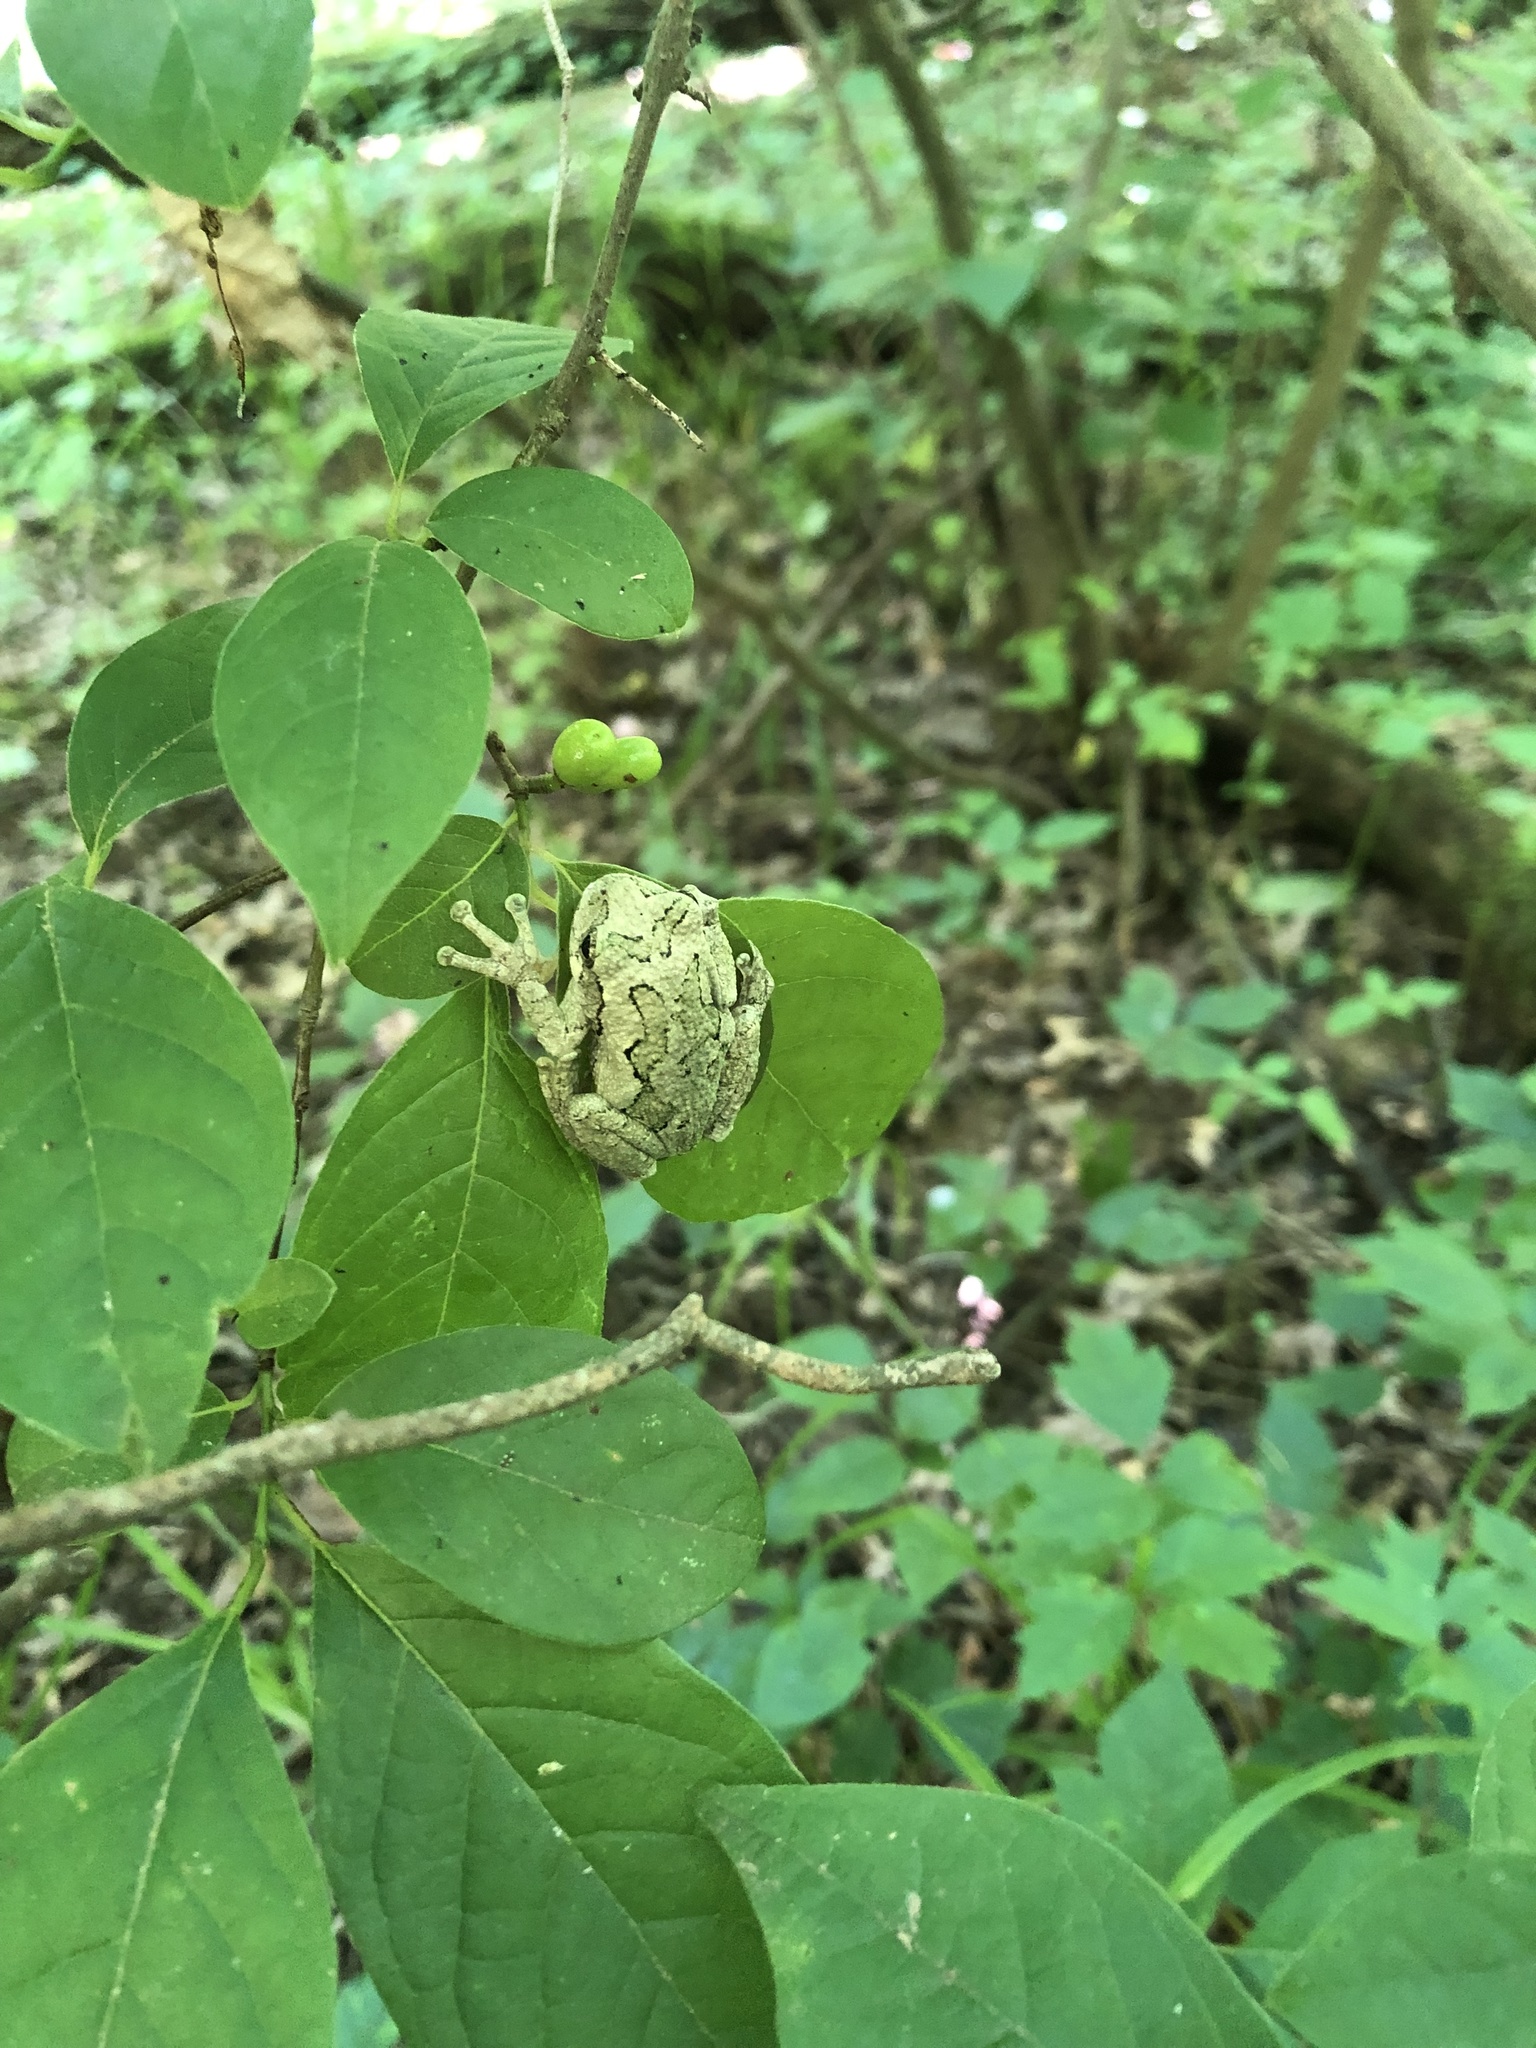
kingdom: Animalia
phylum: Chordata
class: Amphibia
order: Anura
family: Hylidae
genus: Dryophytes
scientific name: Dryophytes chrysoscelis
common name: Cope's gray treefrog
